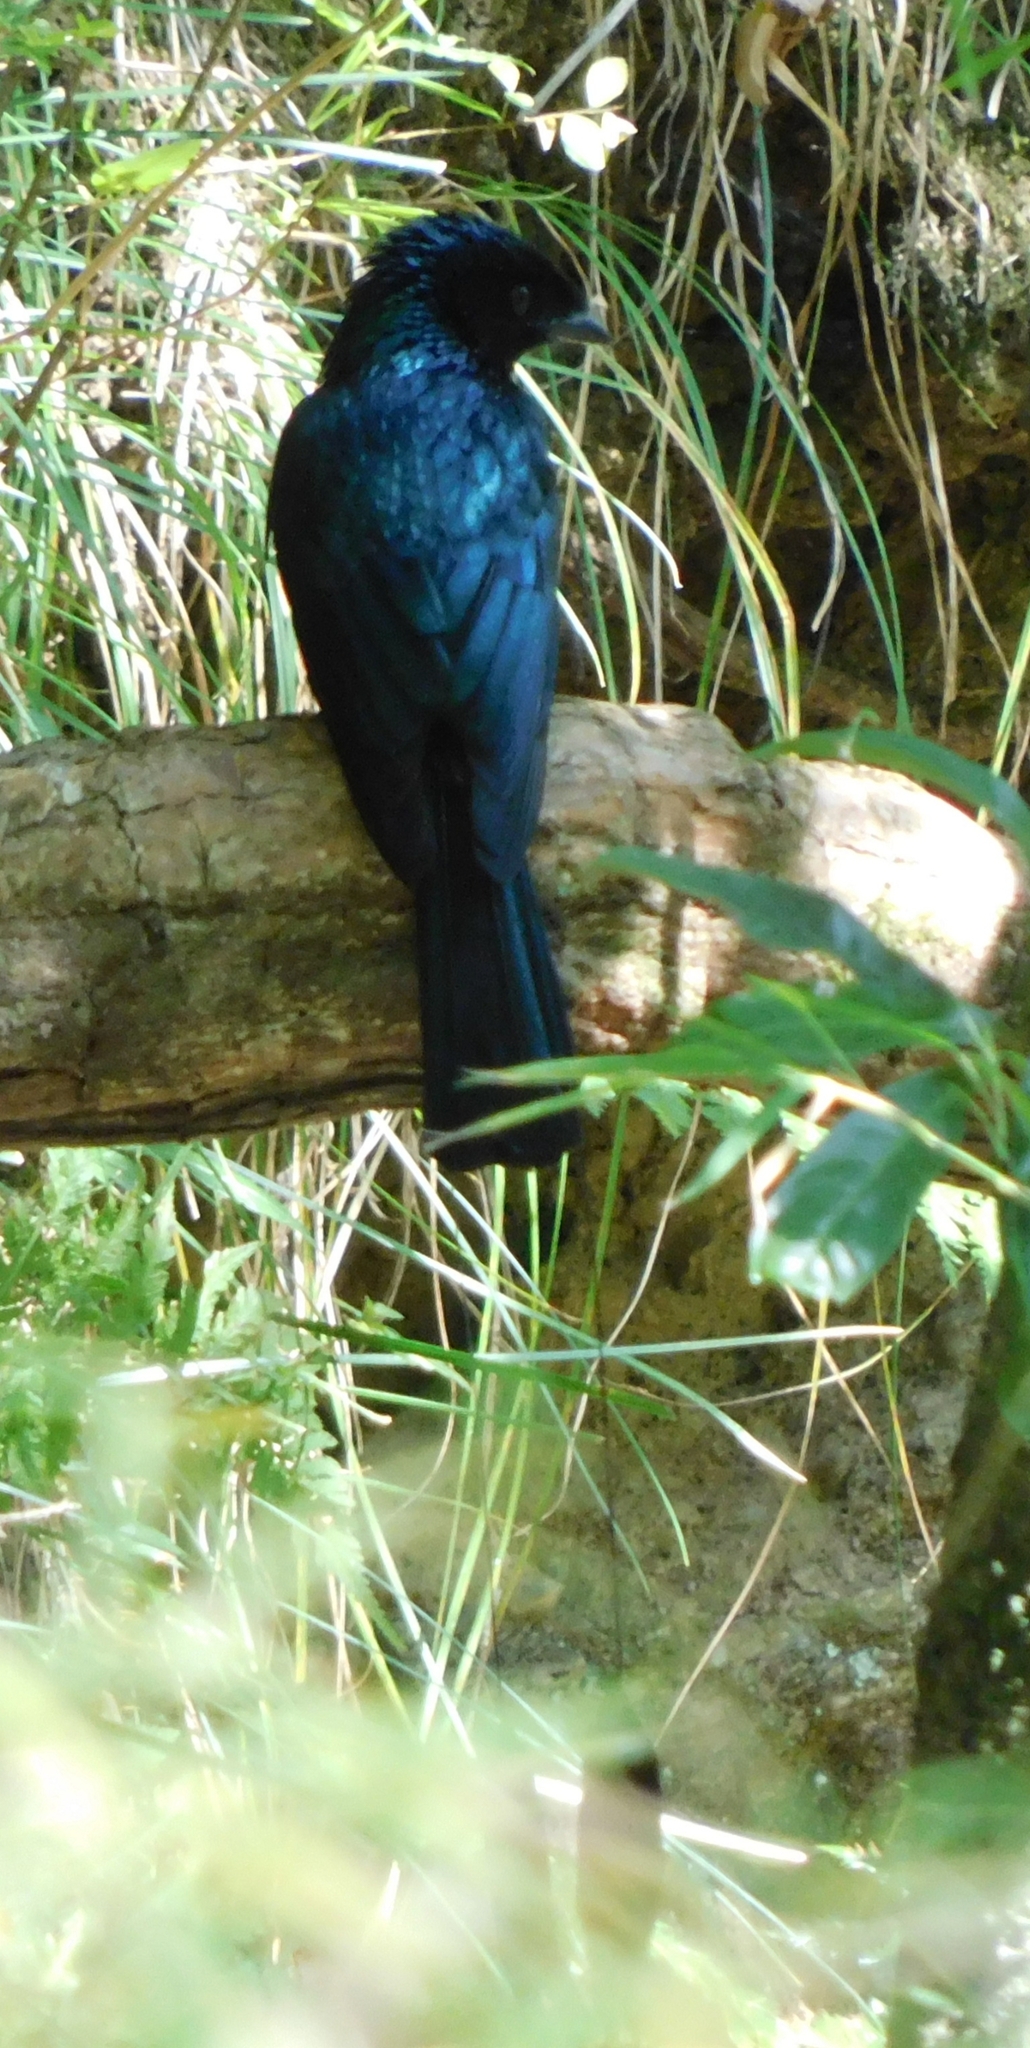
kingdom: Animalia
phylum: Chordata
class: Aves
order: Passeriformes
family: Dicruridae
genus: Dicrurus
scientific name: Dicrurus remifer
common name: Lesser racket-tailed drongo
